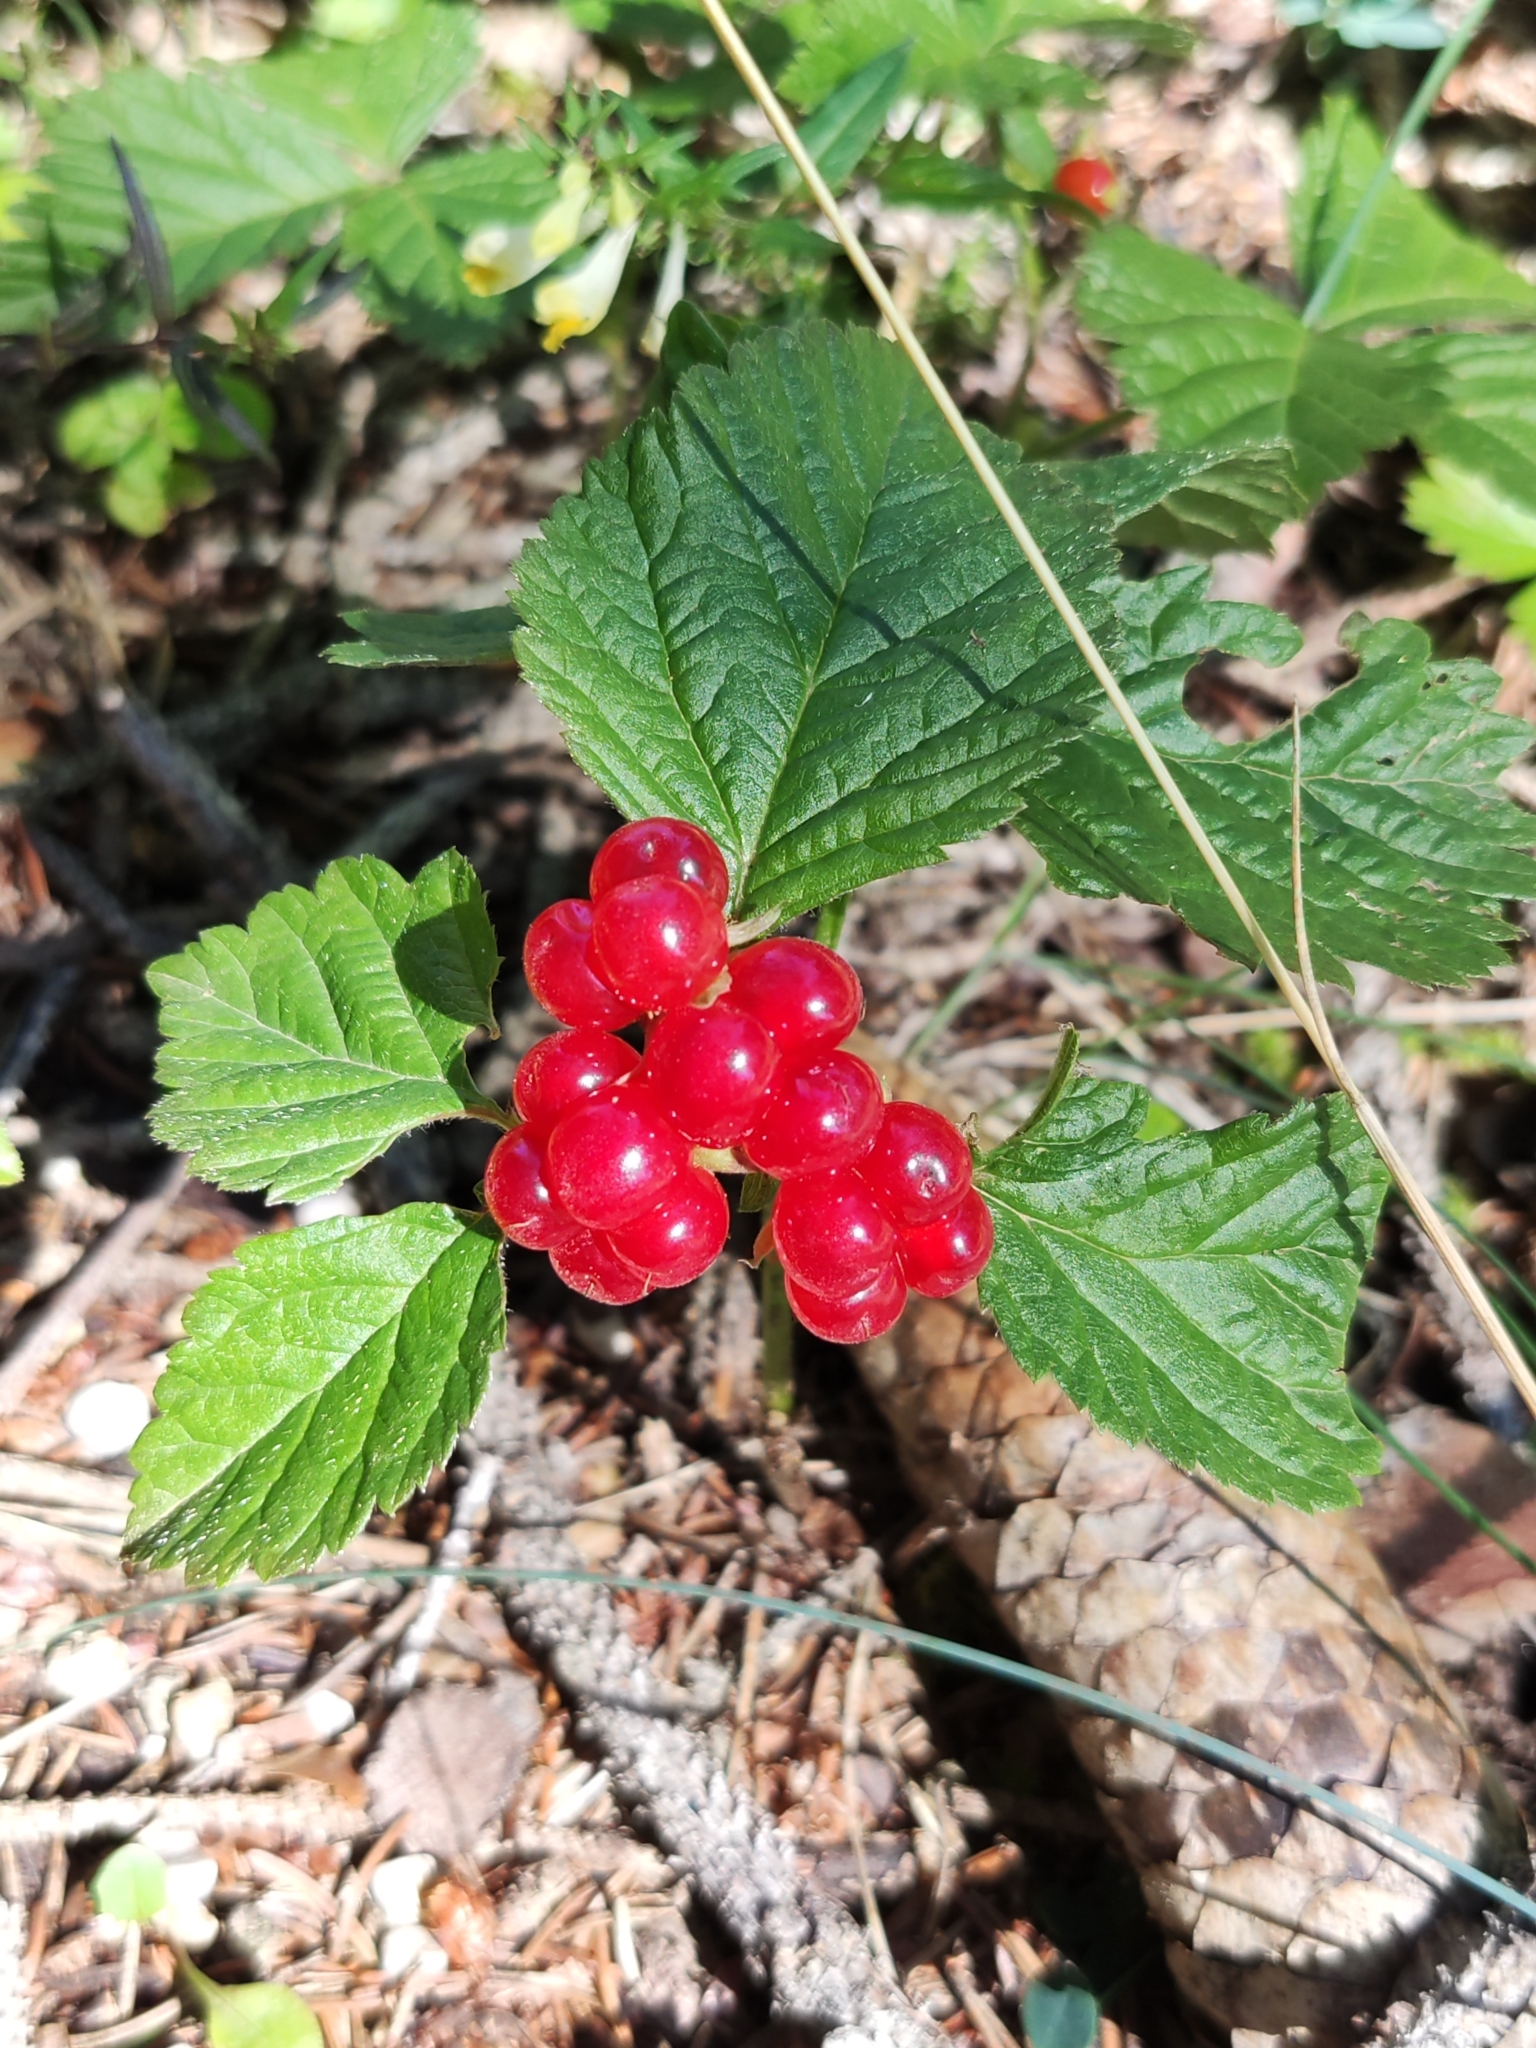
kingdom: Plantae
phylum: Tracheophyta
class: Magnoliopsida
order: Rosales
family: Rosaceae
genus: Rubus
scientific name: Rubus saxatilis
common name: Stone bramble
